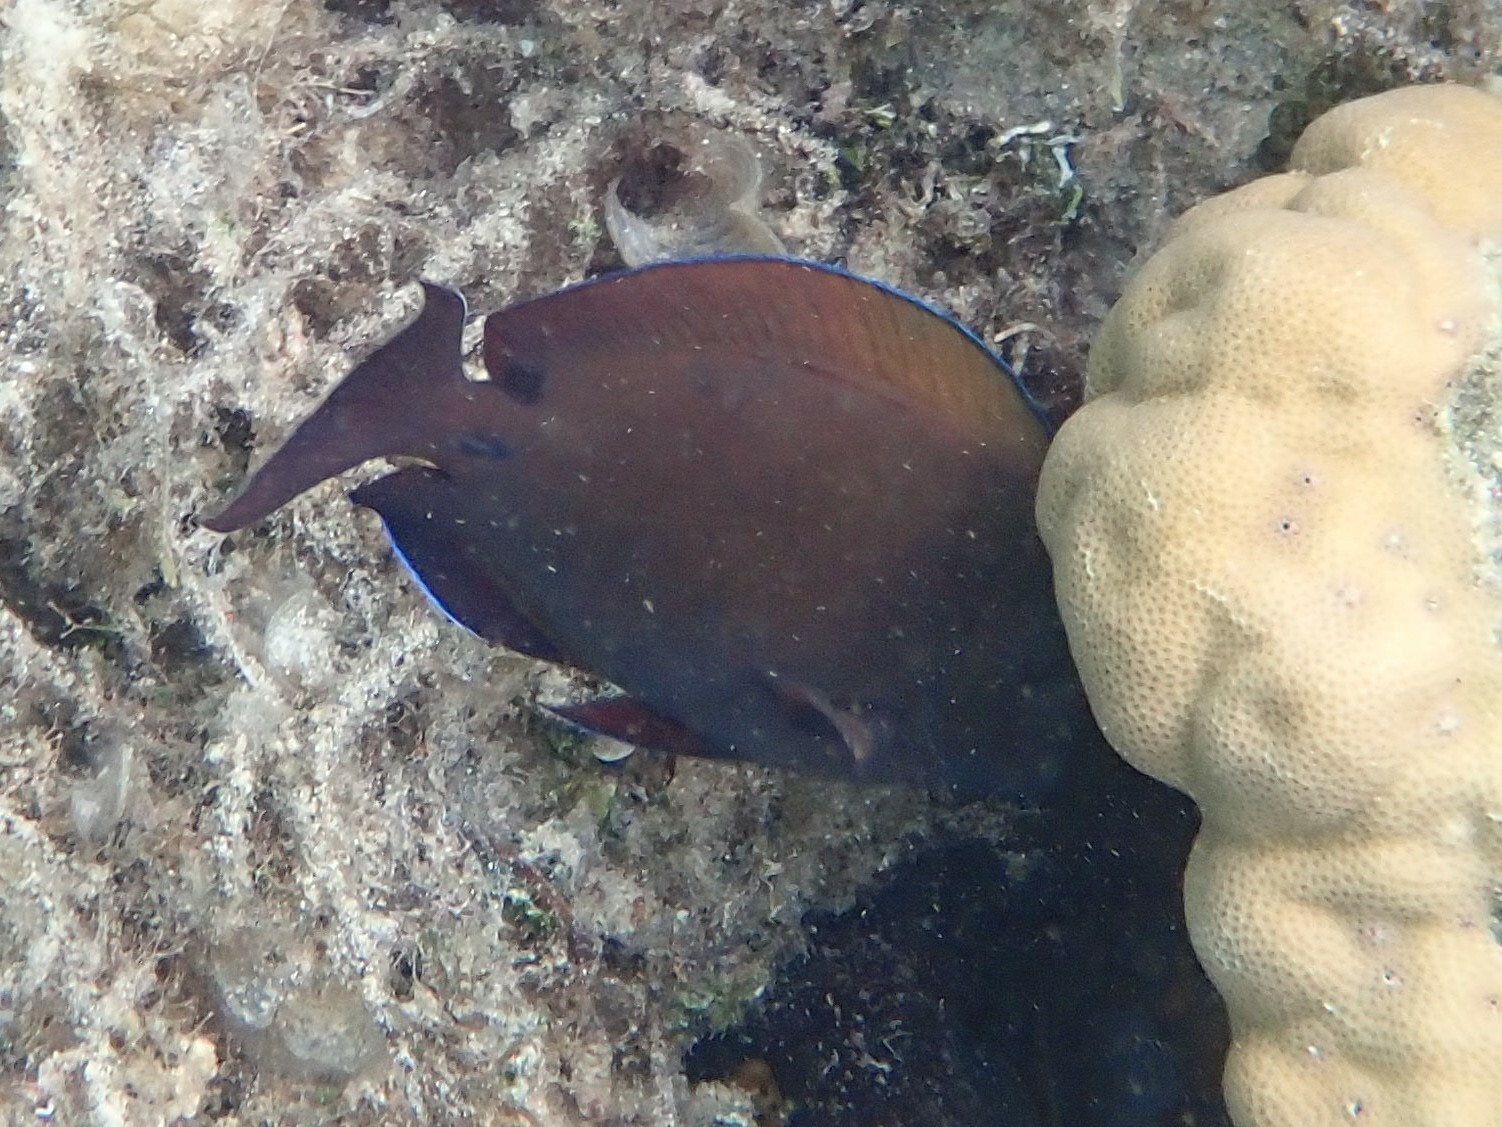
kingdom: Animalia
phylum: Chordata
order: Perciformes
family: Acanthuridae
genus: Acanthurus
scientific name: Acanthurus nigrofuscus
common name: Blackspot surgeonfish
